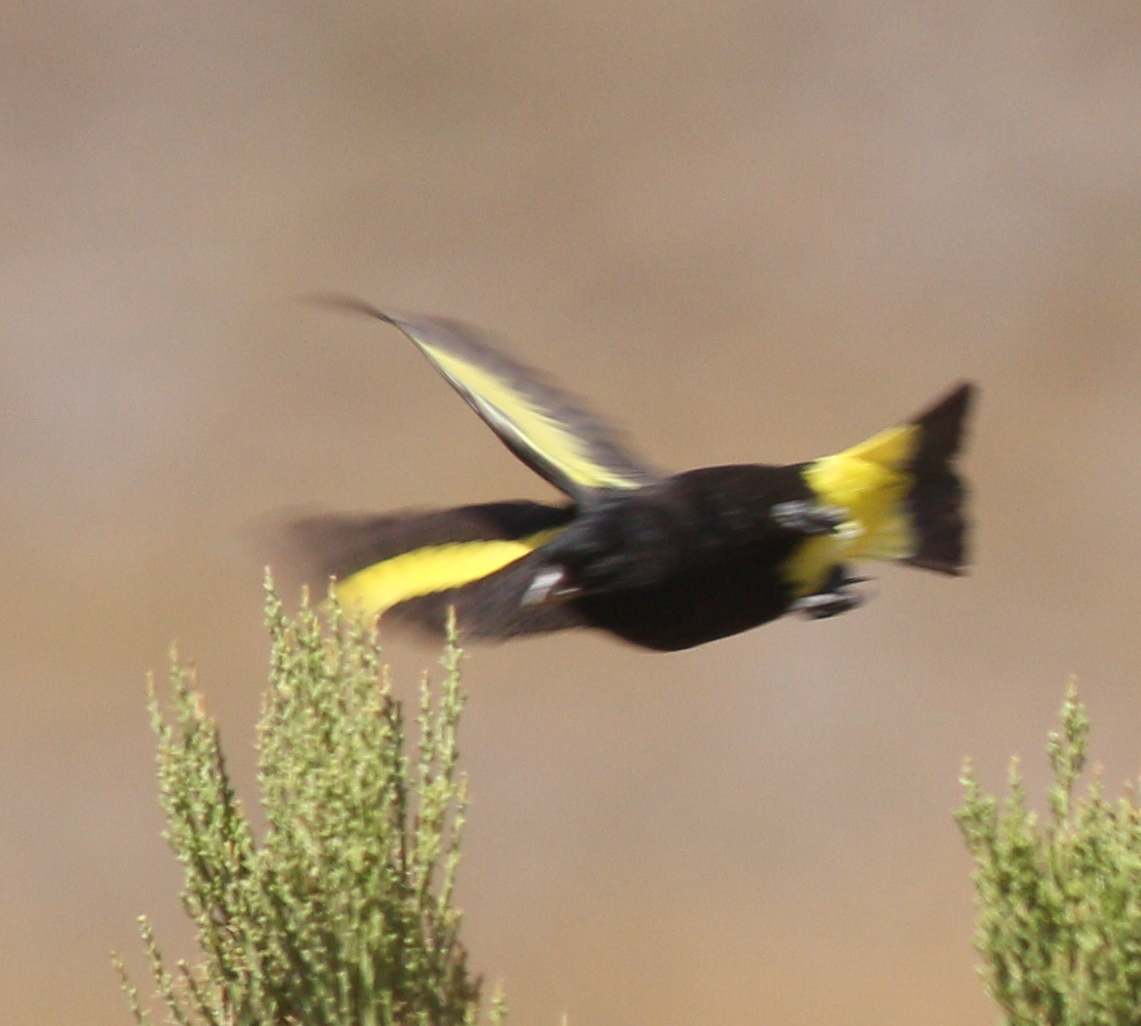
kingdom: Animalia
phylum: Chordata
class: Aves
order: Passeriformes
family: Fringillidae
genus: Spinus
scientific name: Spinus atratus
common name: Black siskin
